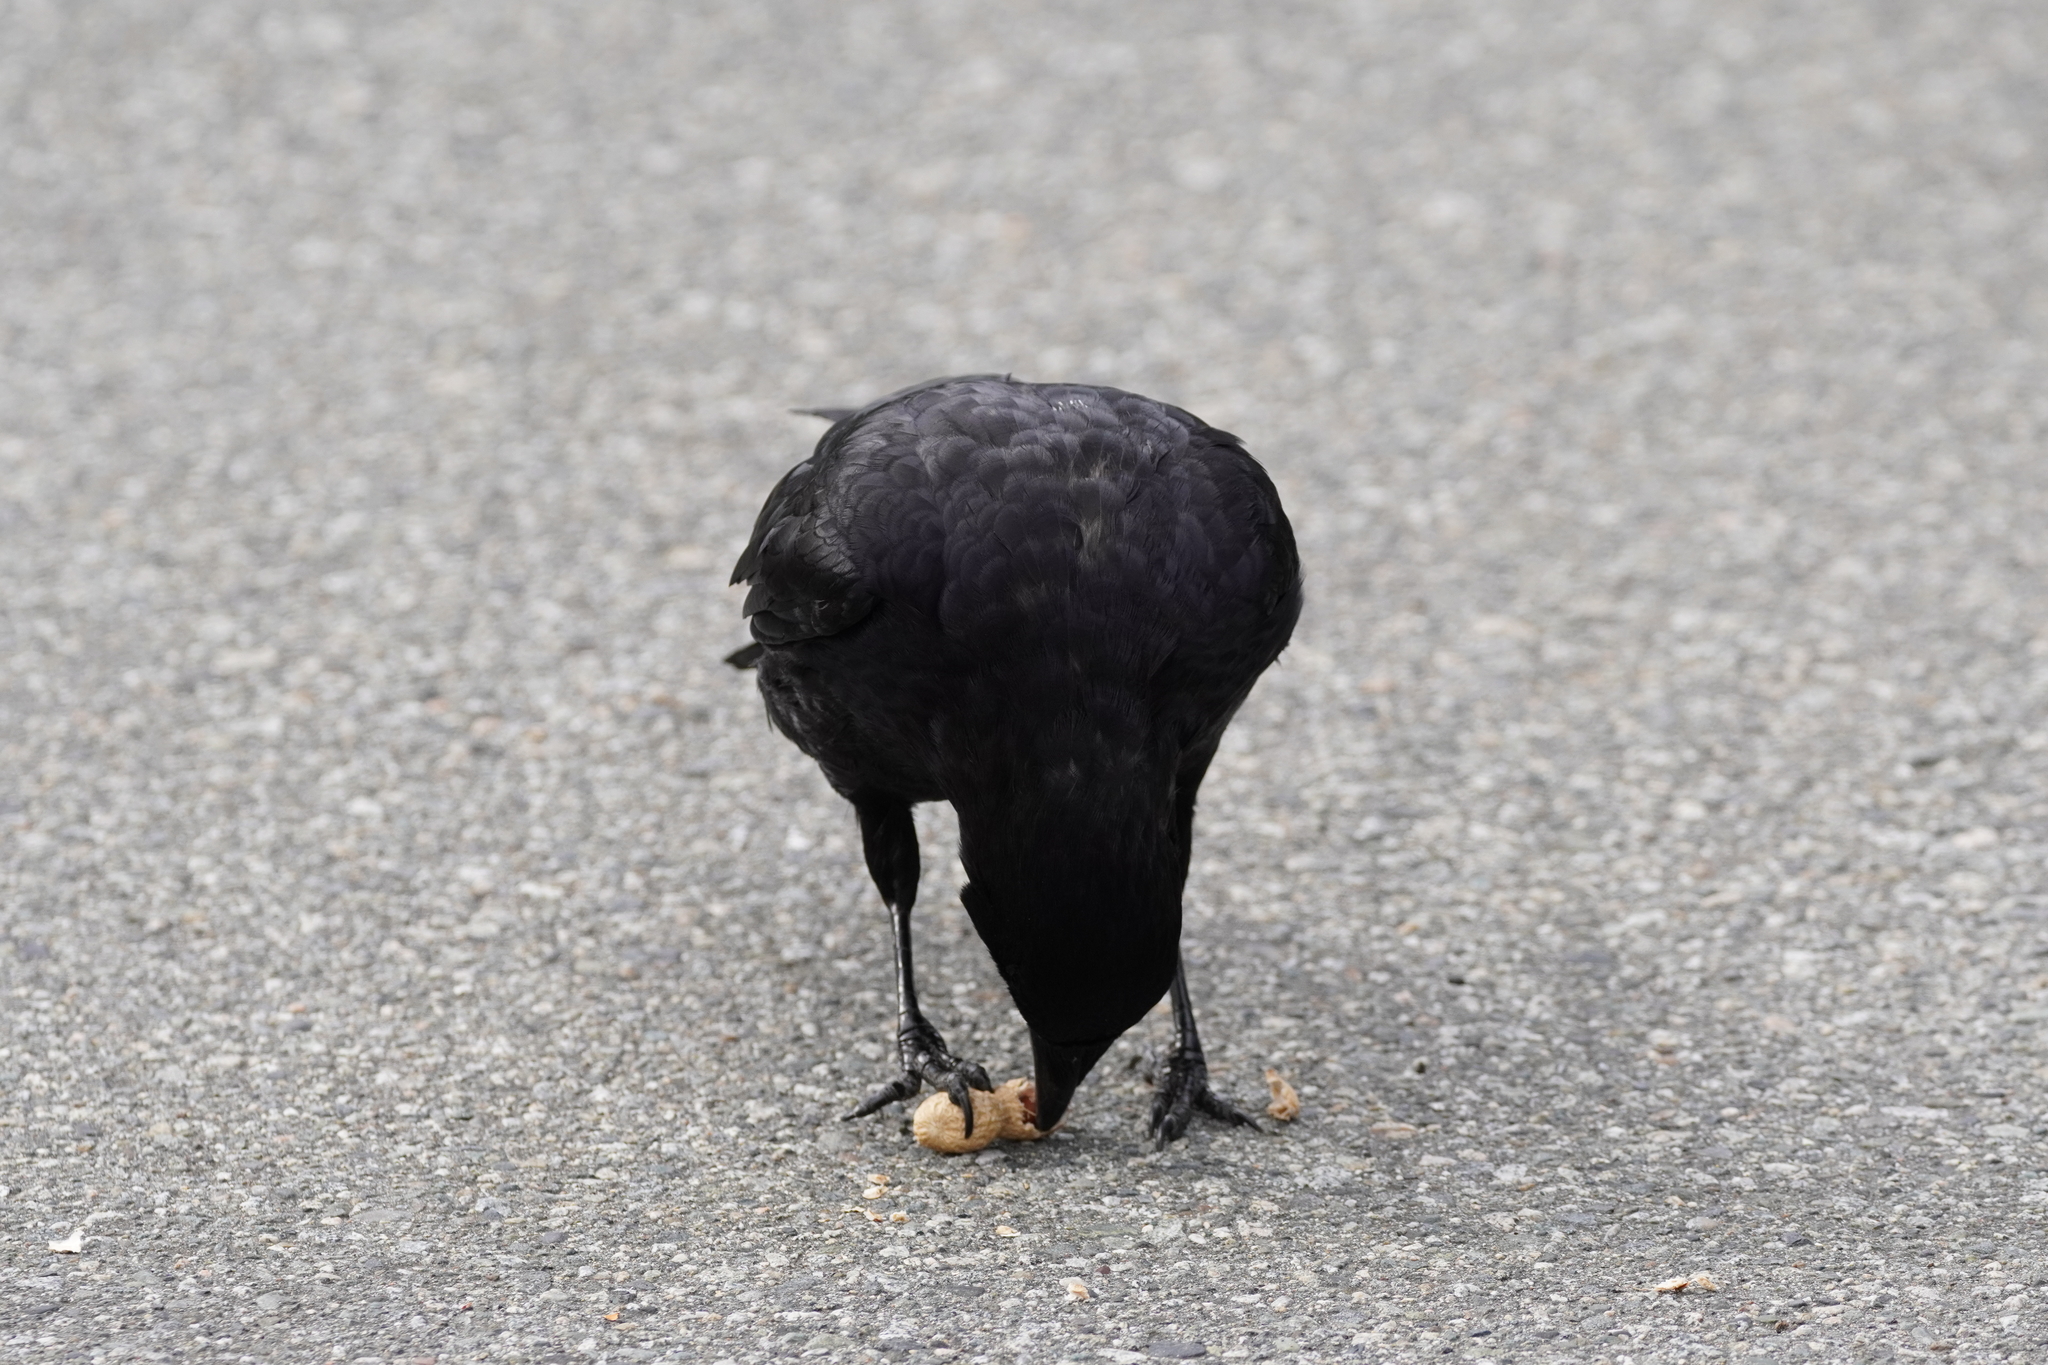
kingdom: Animalia
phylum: Chordata
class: Aves
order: Passeriformes
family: Corvidae
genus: Corvus
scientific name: Corvus brachyrhynchos
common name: American crow
